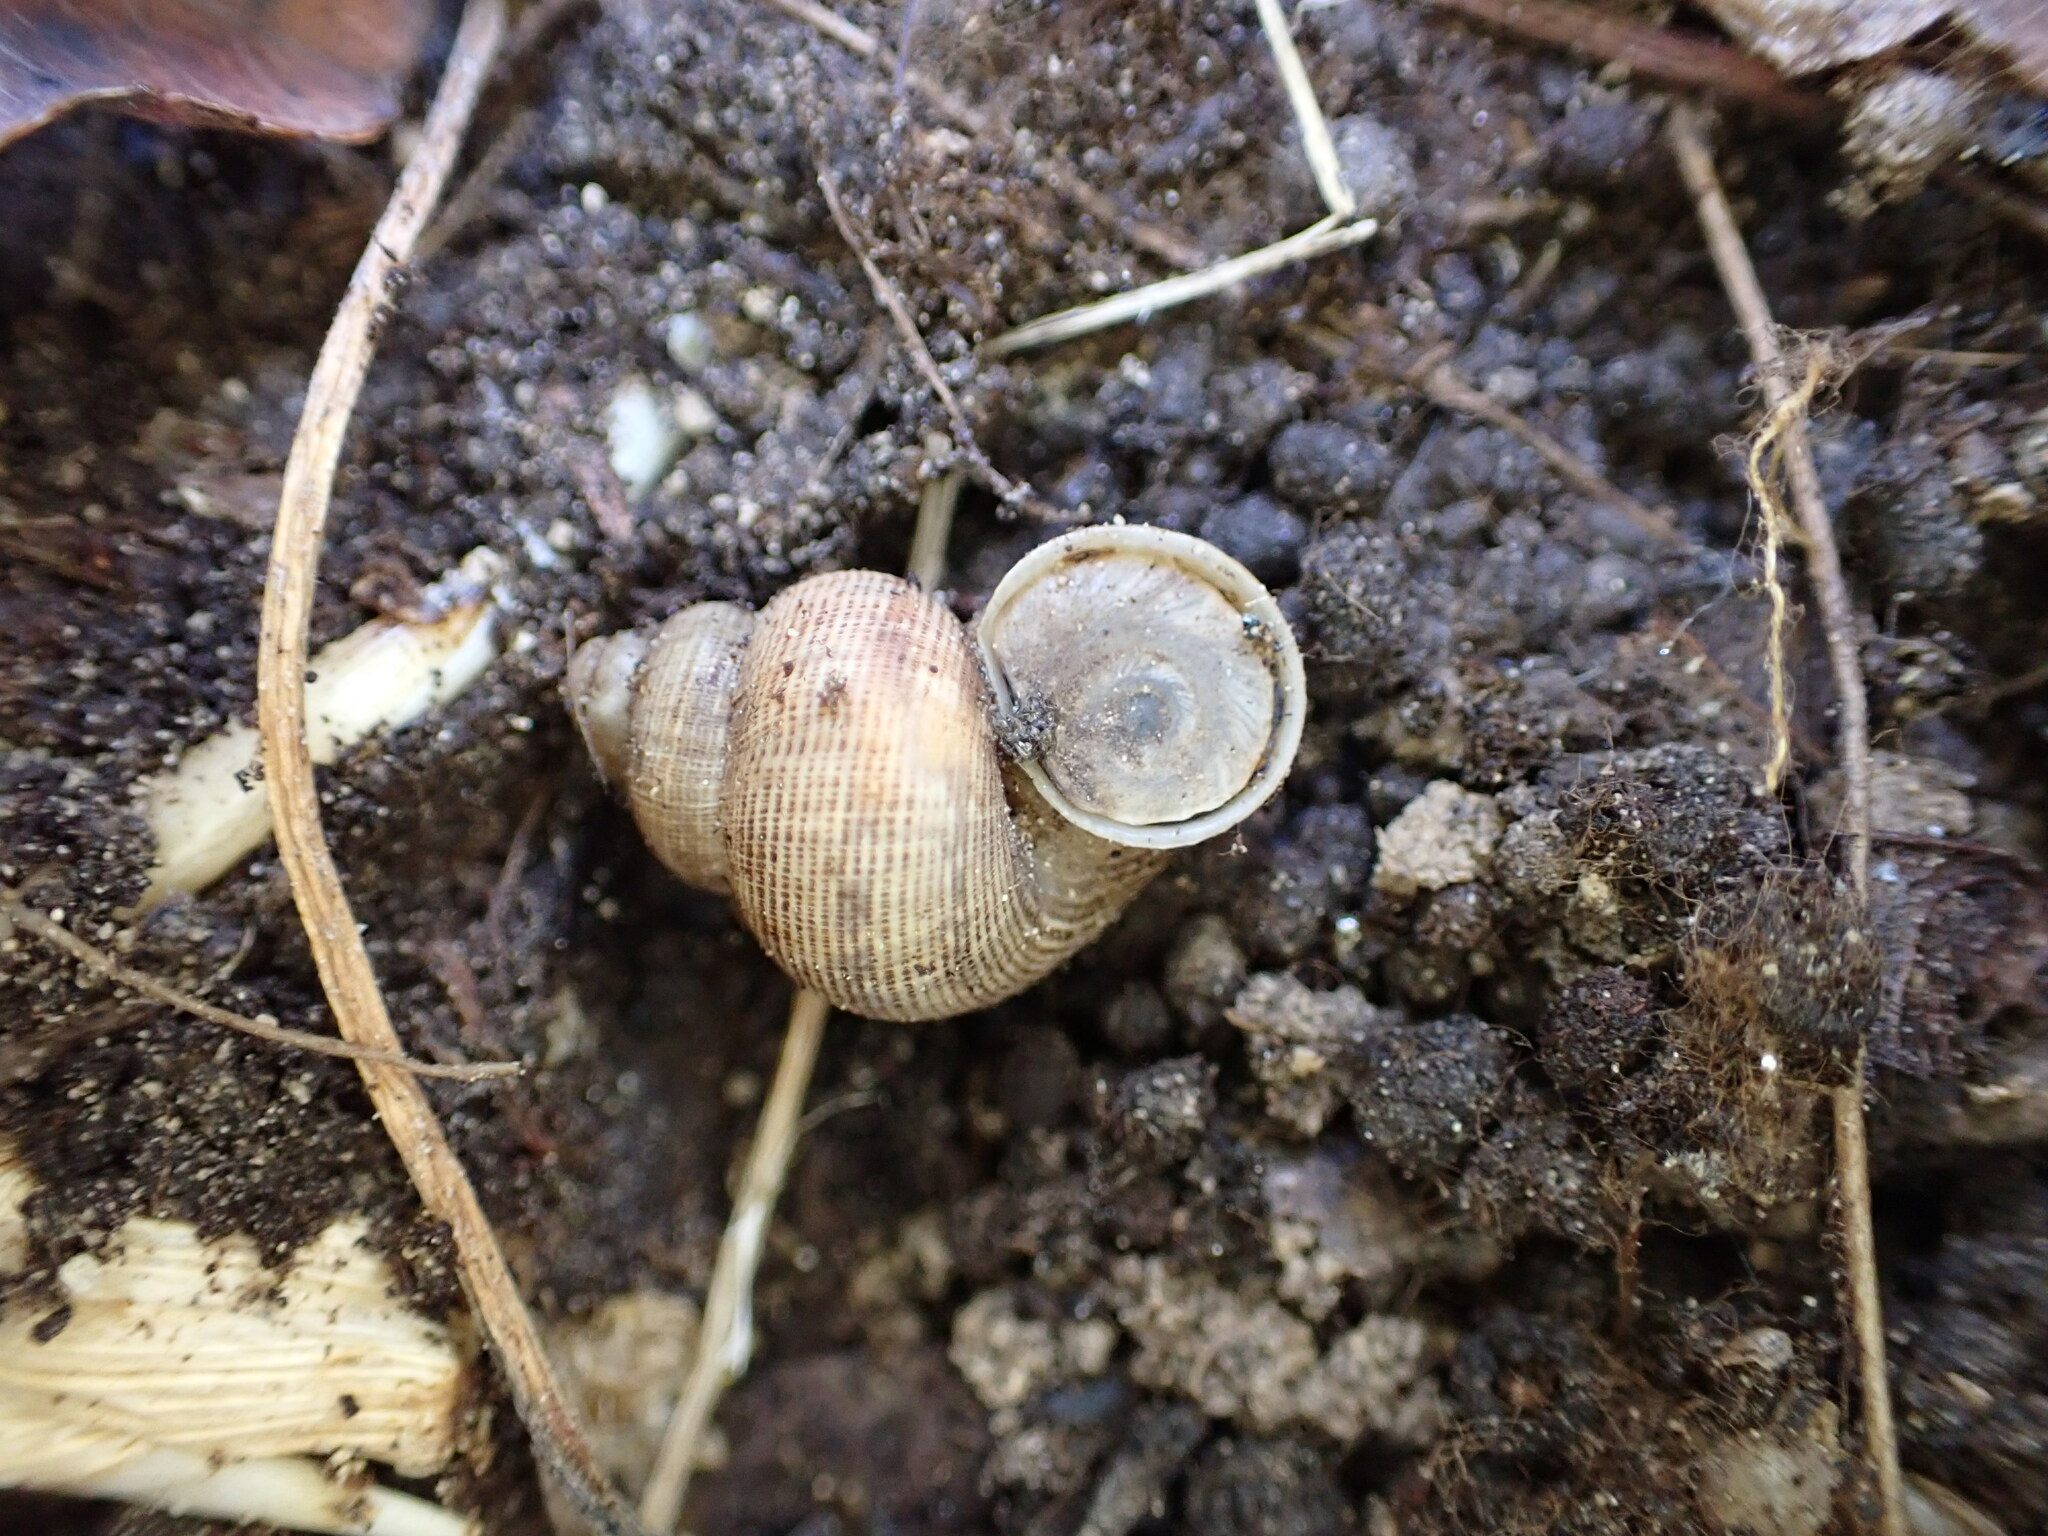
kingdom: Animalia
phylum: Mollusca
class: Gastropoda
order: Littorinimorpha
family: Pomatiidae
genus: Pomatias
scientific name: Pomatias elegans
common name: Red-mouthed snail
